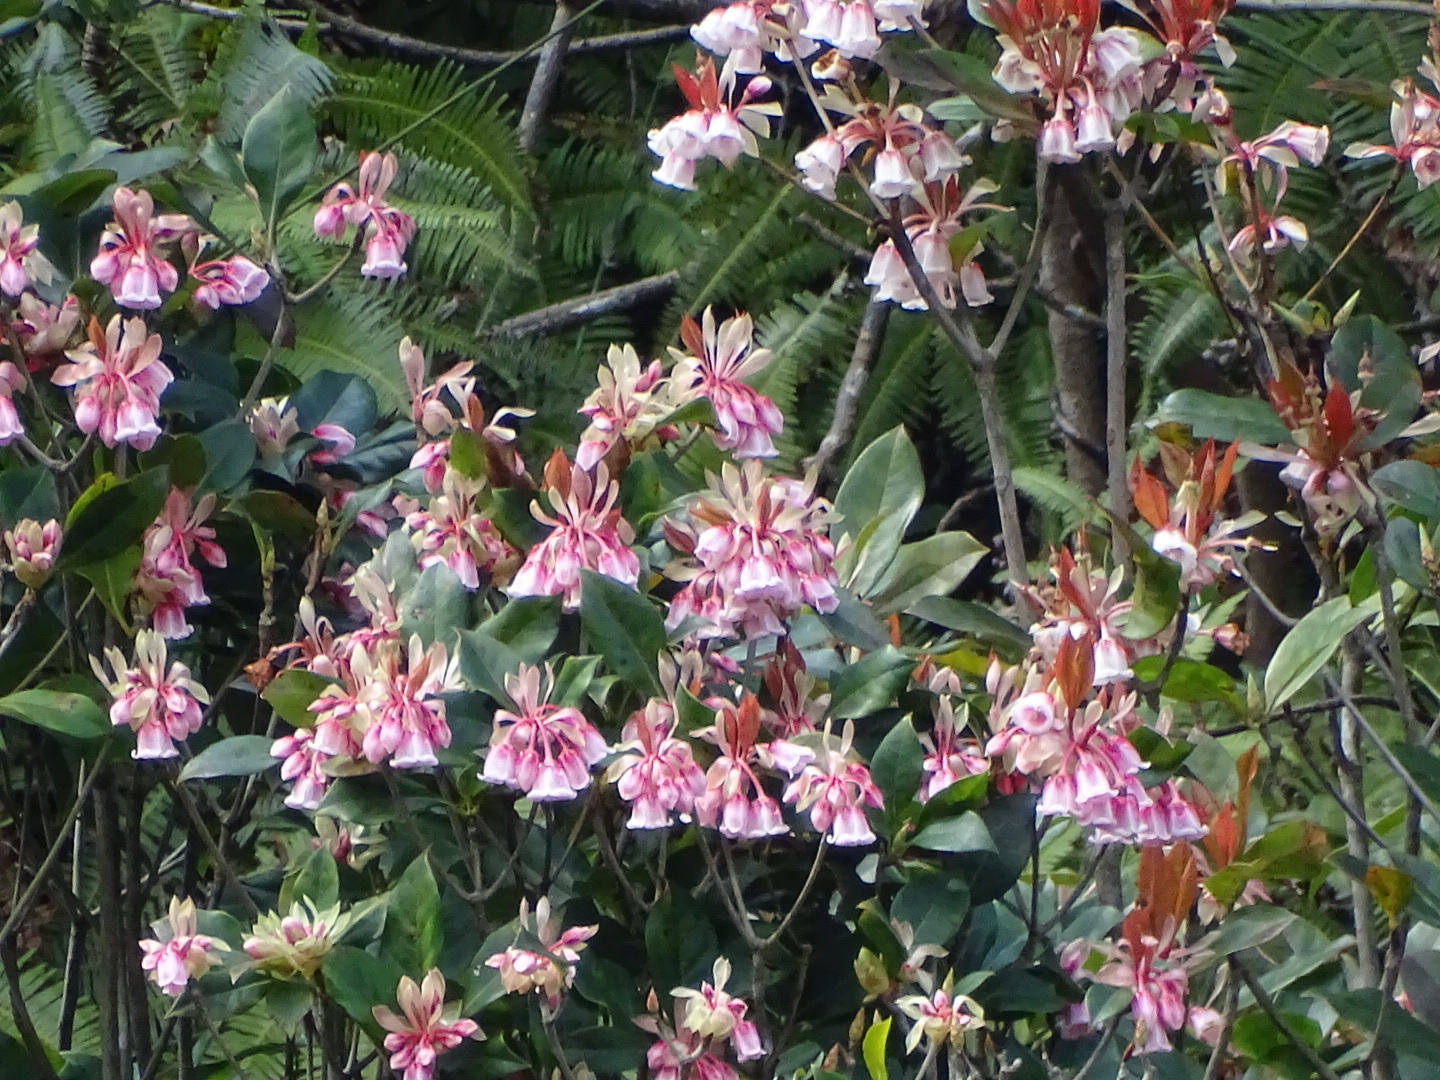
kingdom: Plantae
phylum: Tracheophyta
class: Magnoliopsida
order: Ericales
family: Ericaceae
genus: Enkianthus
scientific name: Enkianthus quinqueflorus
